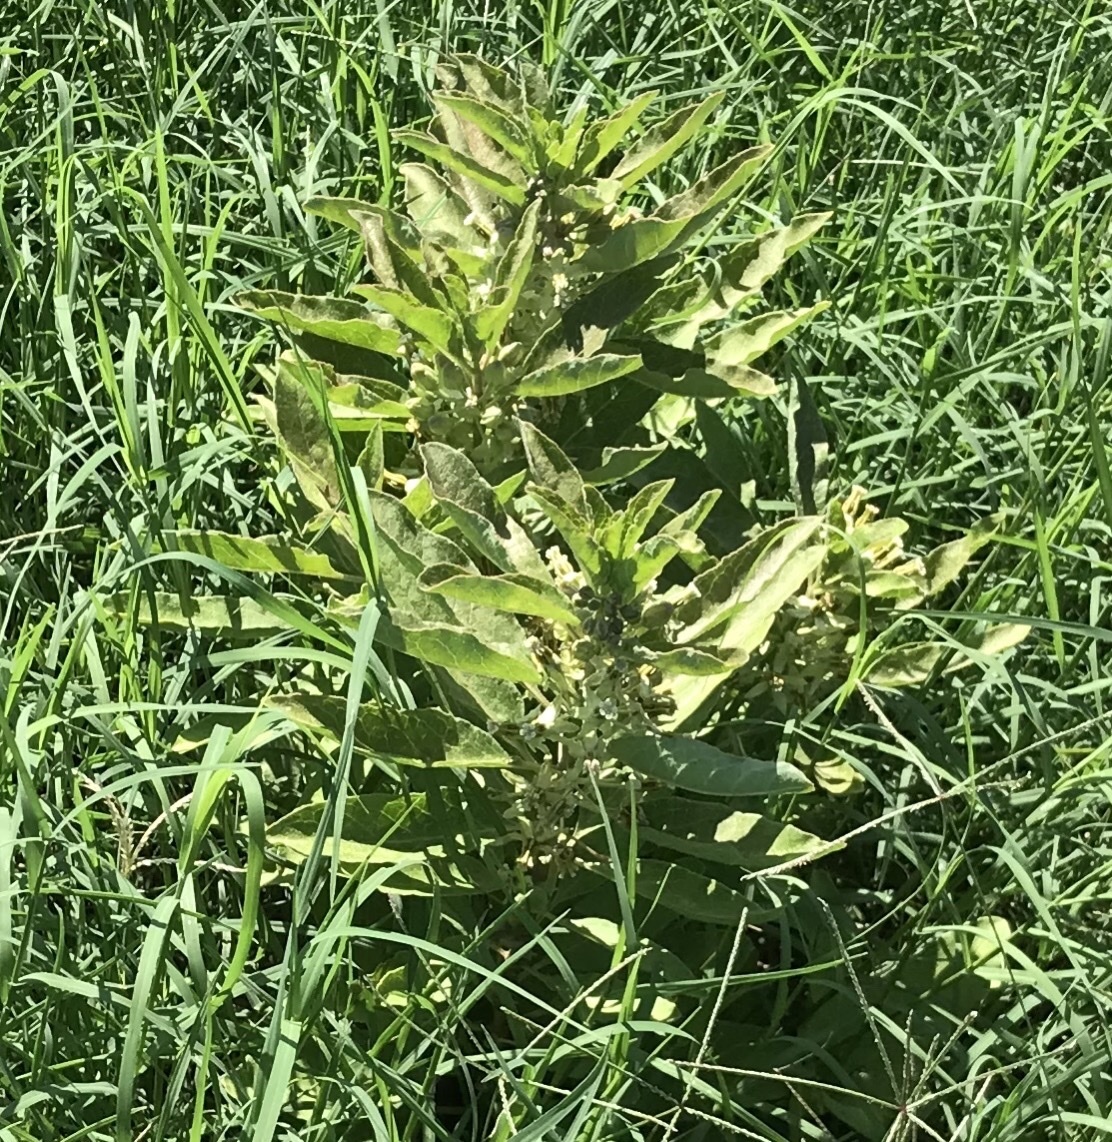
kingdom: Plantae
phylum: Tracheophyta
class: Magnoliopsida
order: Gentianales
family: Apocynaceae
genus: Asclepias
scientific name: Asclepias oenotheroides
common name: Zizotes milkweed
